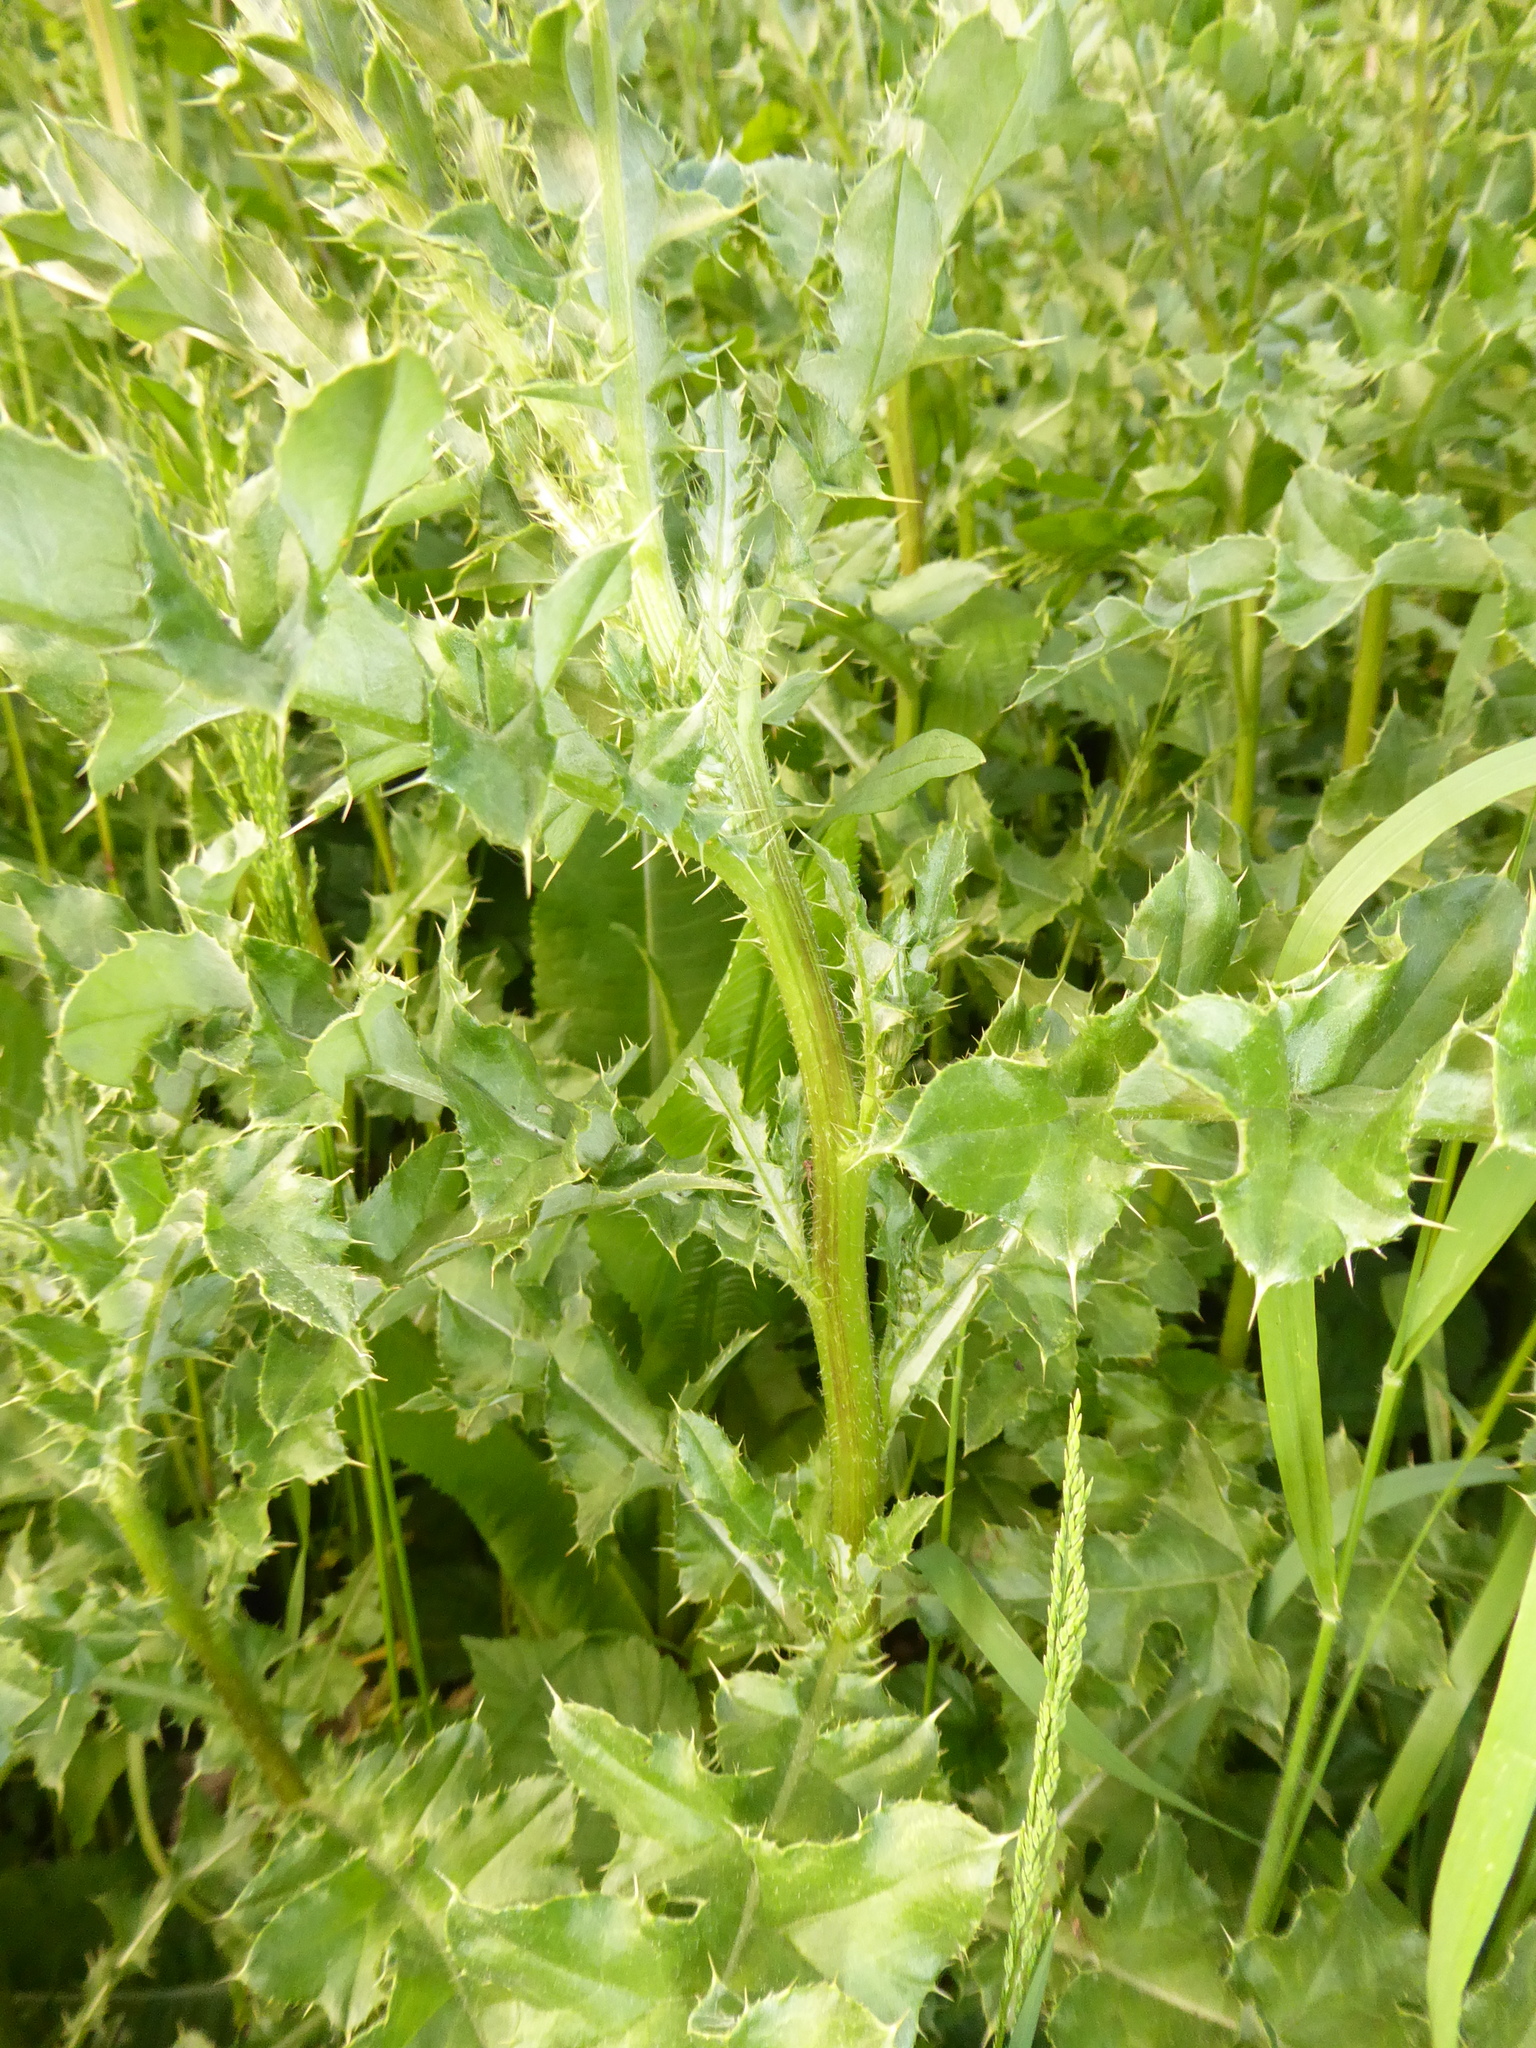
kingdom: Plantae
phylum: Tracheophyta
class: Magnoliopsida
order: Asterales
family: Asteraceae
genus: Cirsium
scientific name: Cirsium arvense
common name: Creeping thistle
